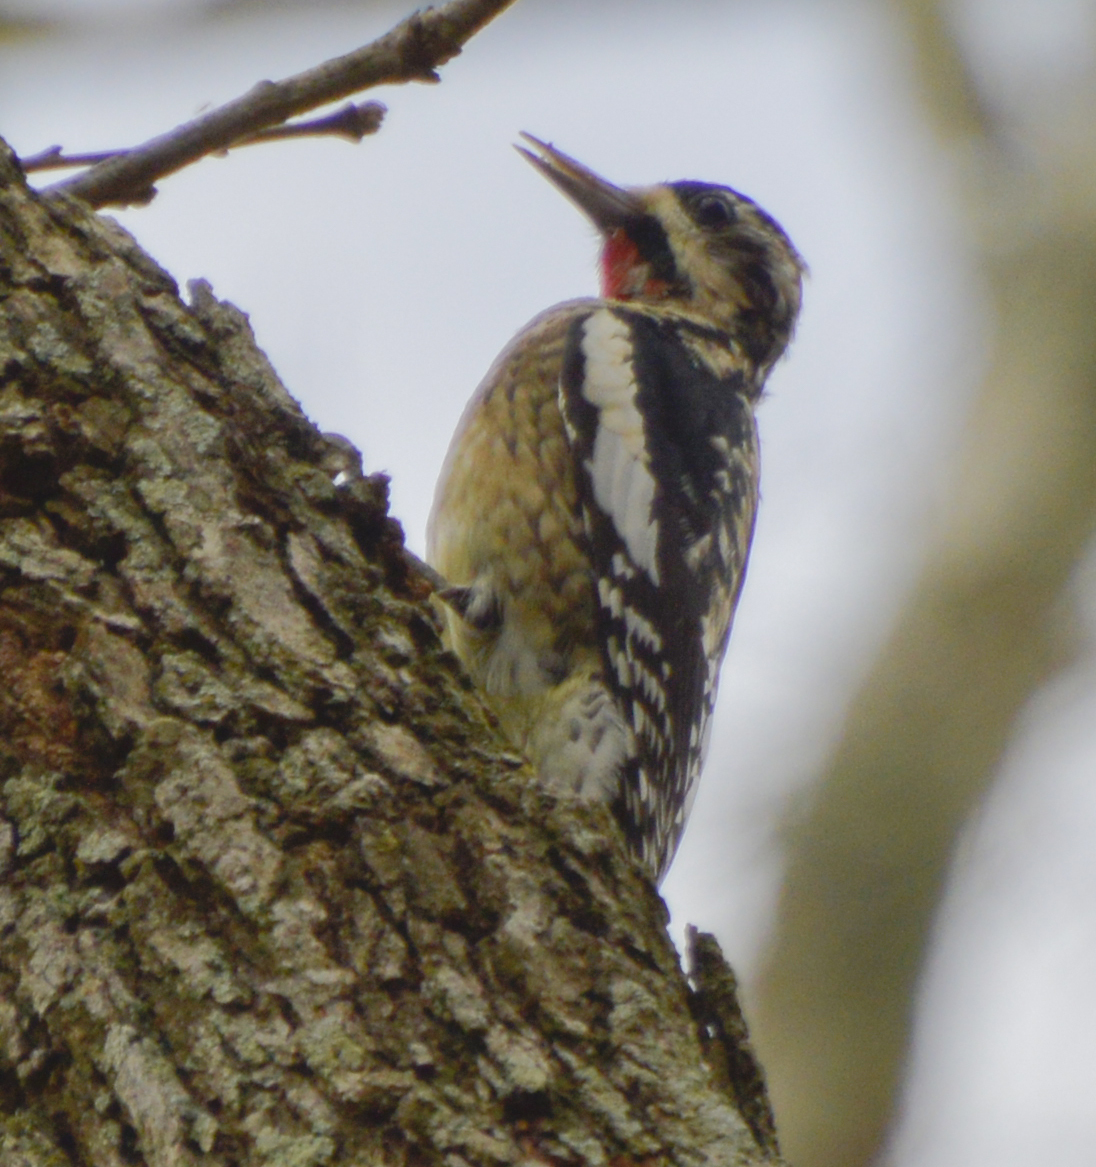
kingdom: Animalia
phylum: Chordata
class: Aves
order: Piciformes
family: Picidae
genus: Sphyrapicus
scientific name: Sphyrapicus varius
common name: Yellow-bellied sapsucker
